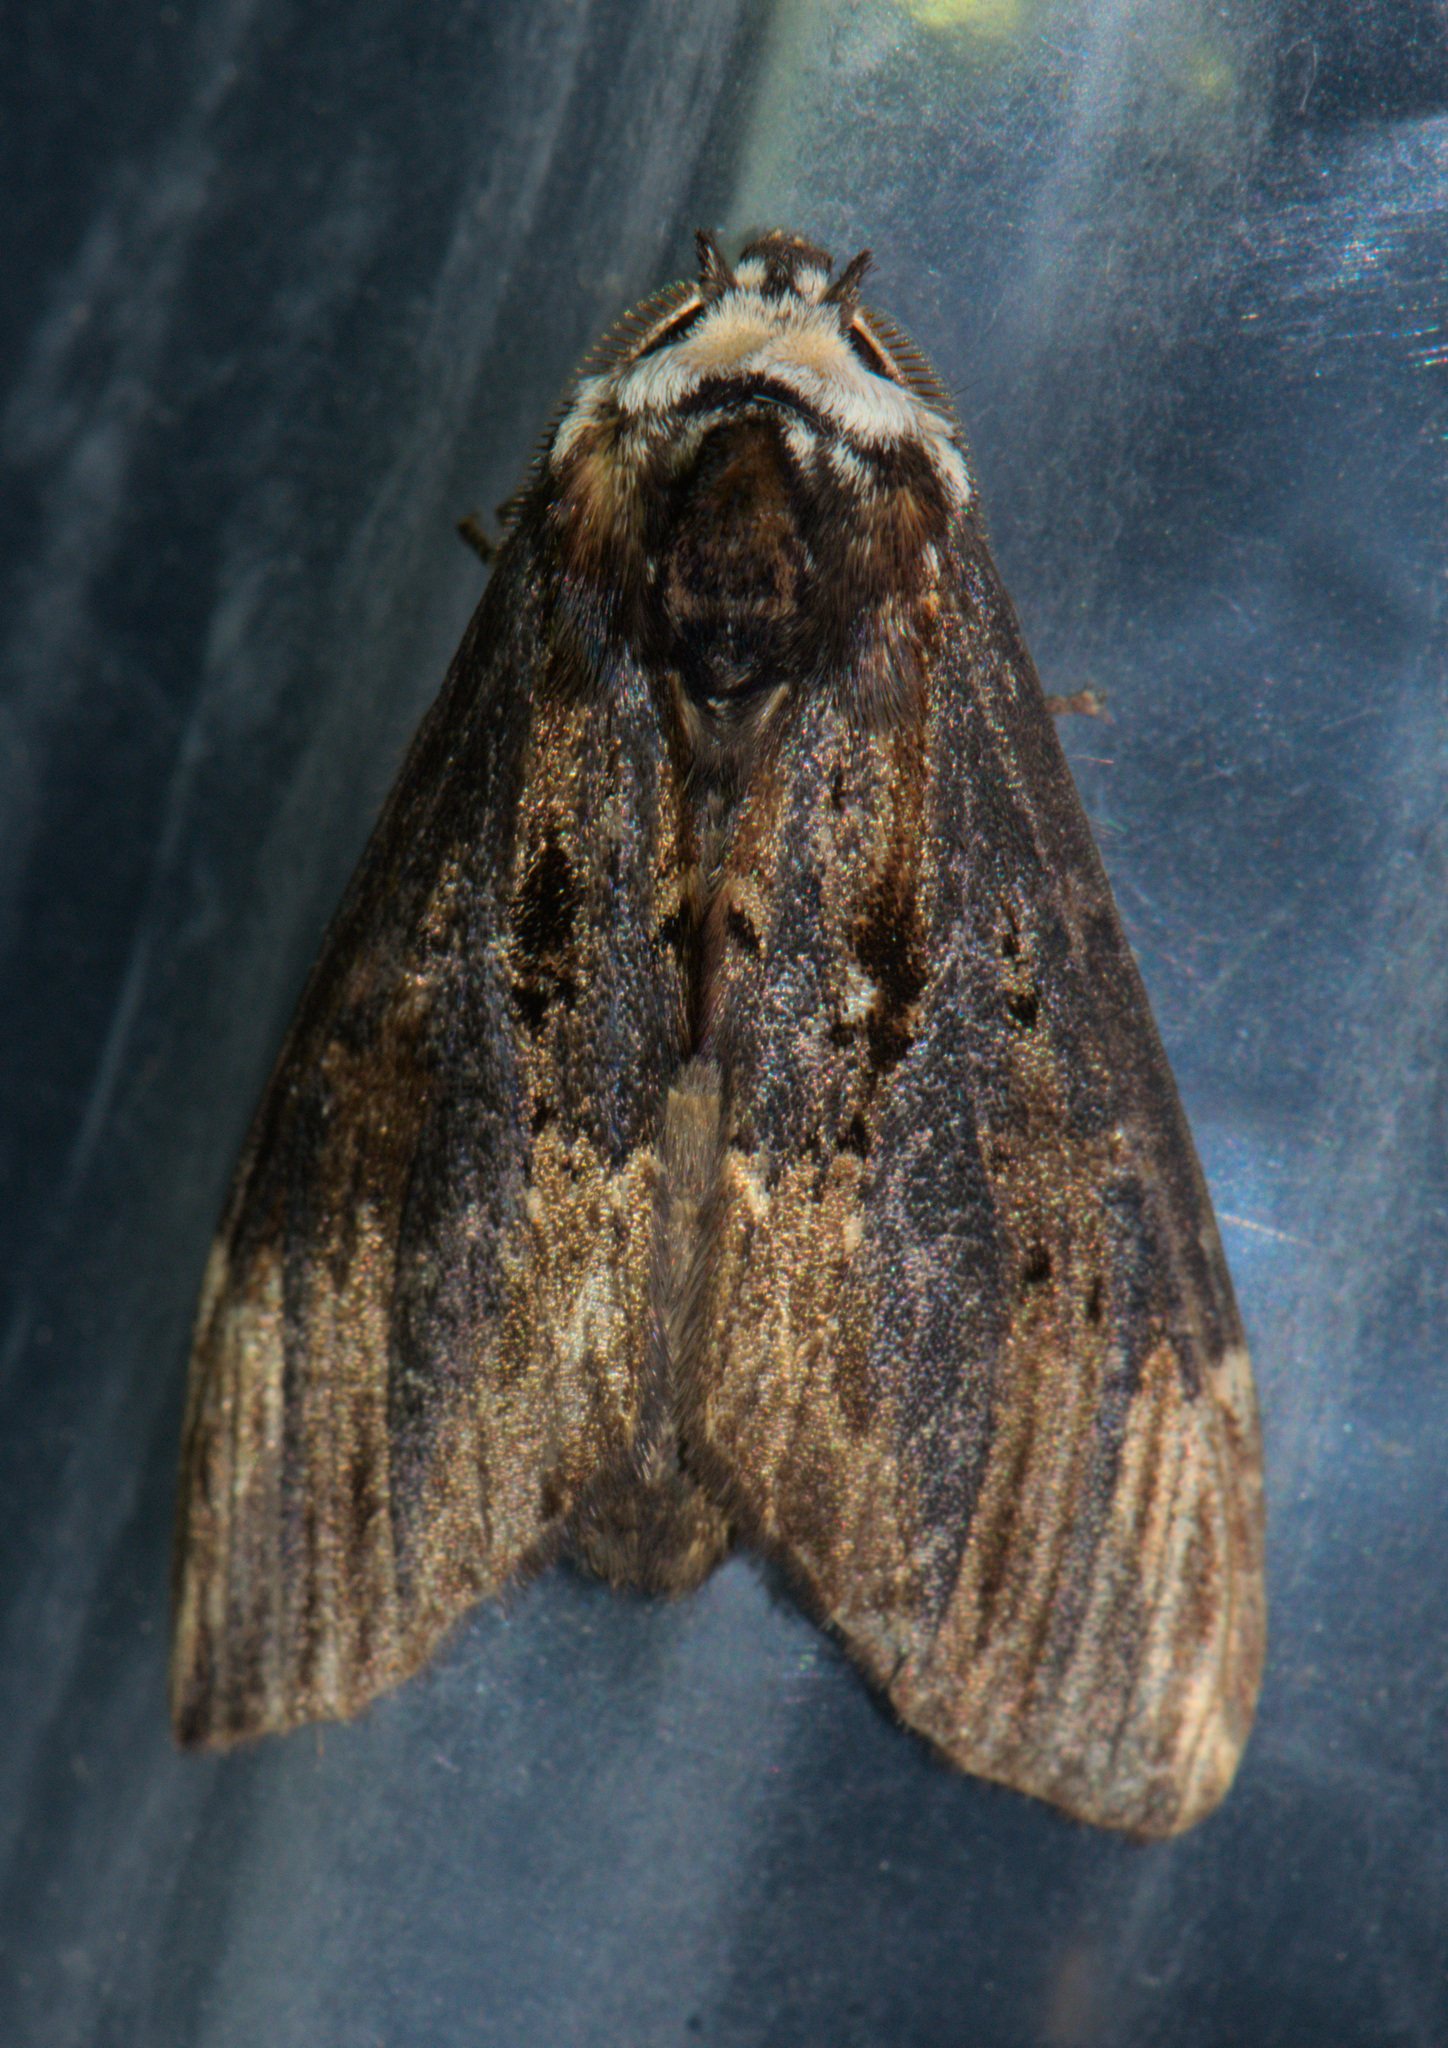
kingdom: Animalia
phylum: Arthropoda
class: Insecta
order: Lepidoptera
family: Notodontidae
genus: Allodonta
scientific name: Allodonta collaris
